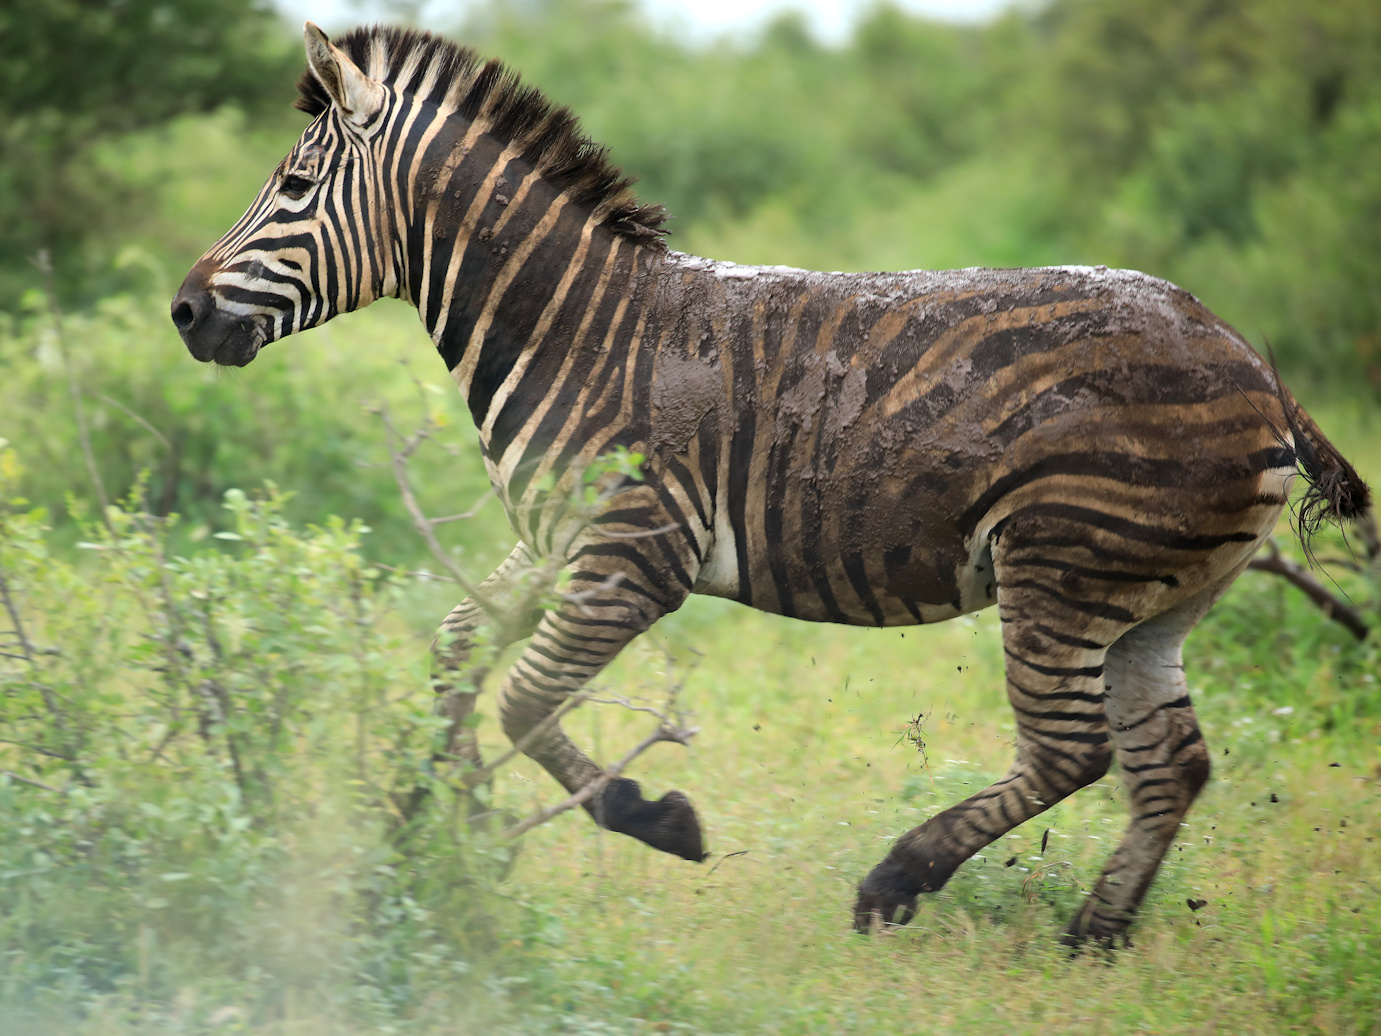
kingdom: Animalia
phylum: Chordata
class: Mammalia
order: Perissodactyla
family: Equidae
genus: Equus
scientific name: Equus quagga
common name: Plains zebra
